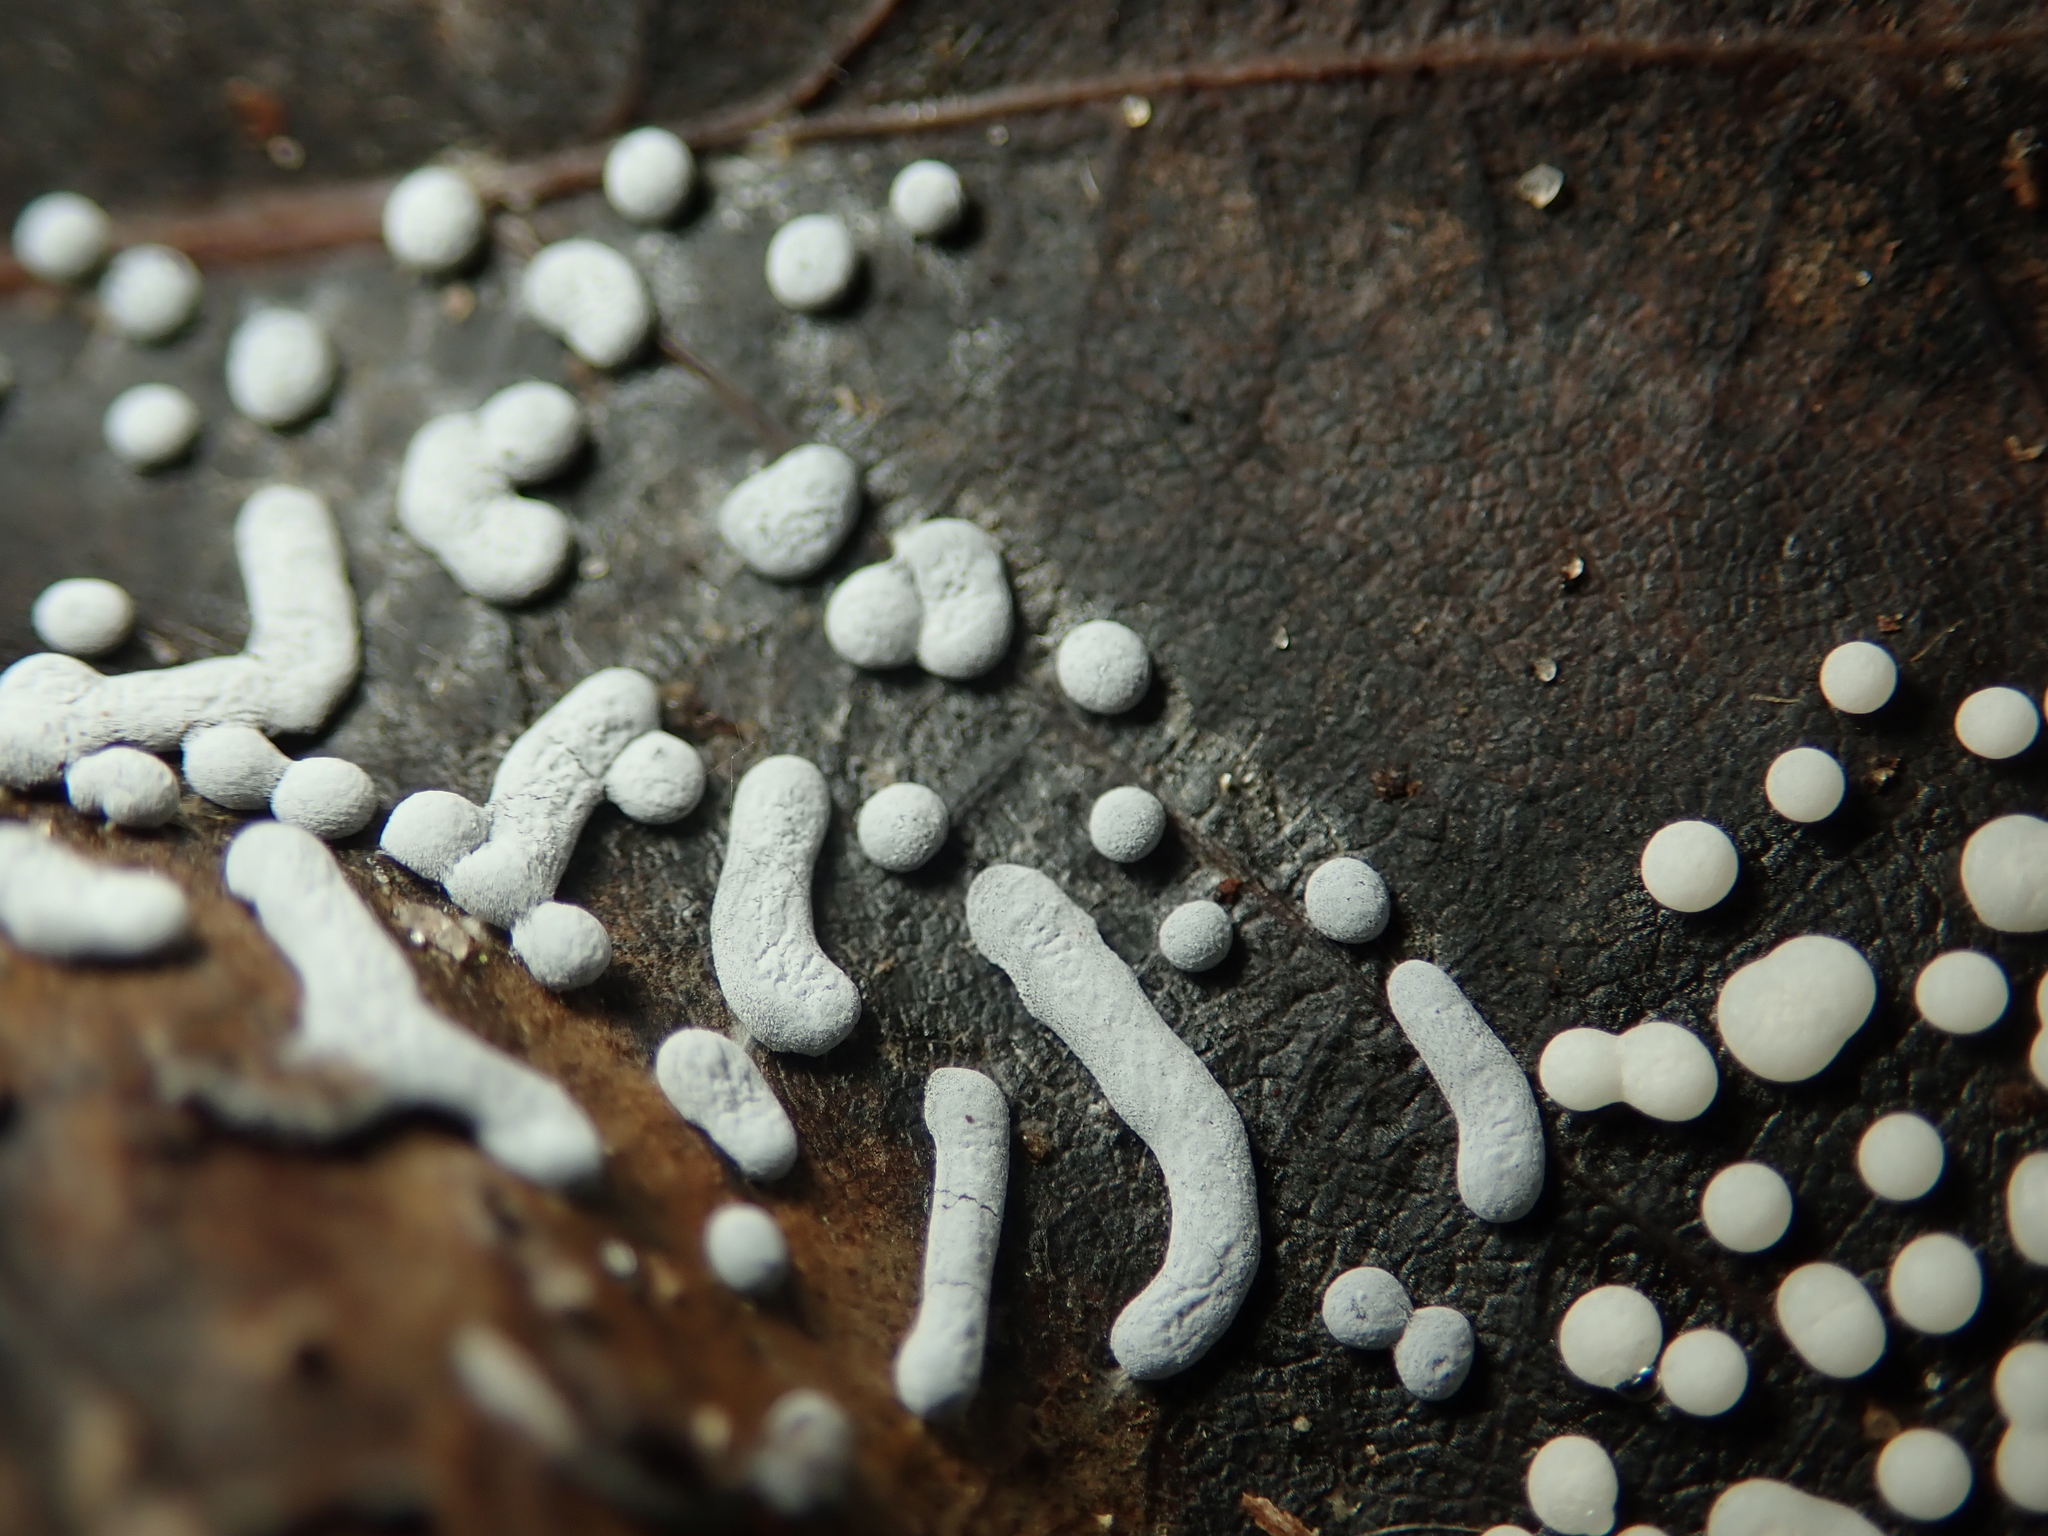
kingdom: Protozoa
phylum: Mycetozoa
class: Myxomycetes
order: Physarales
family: Didymiaceae
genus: Diderma
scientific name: Diderma effusum
